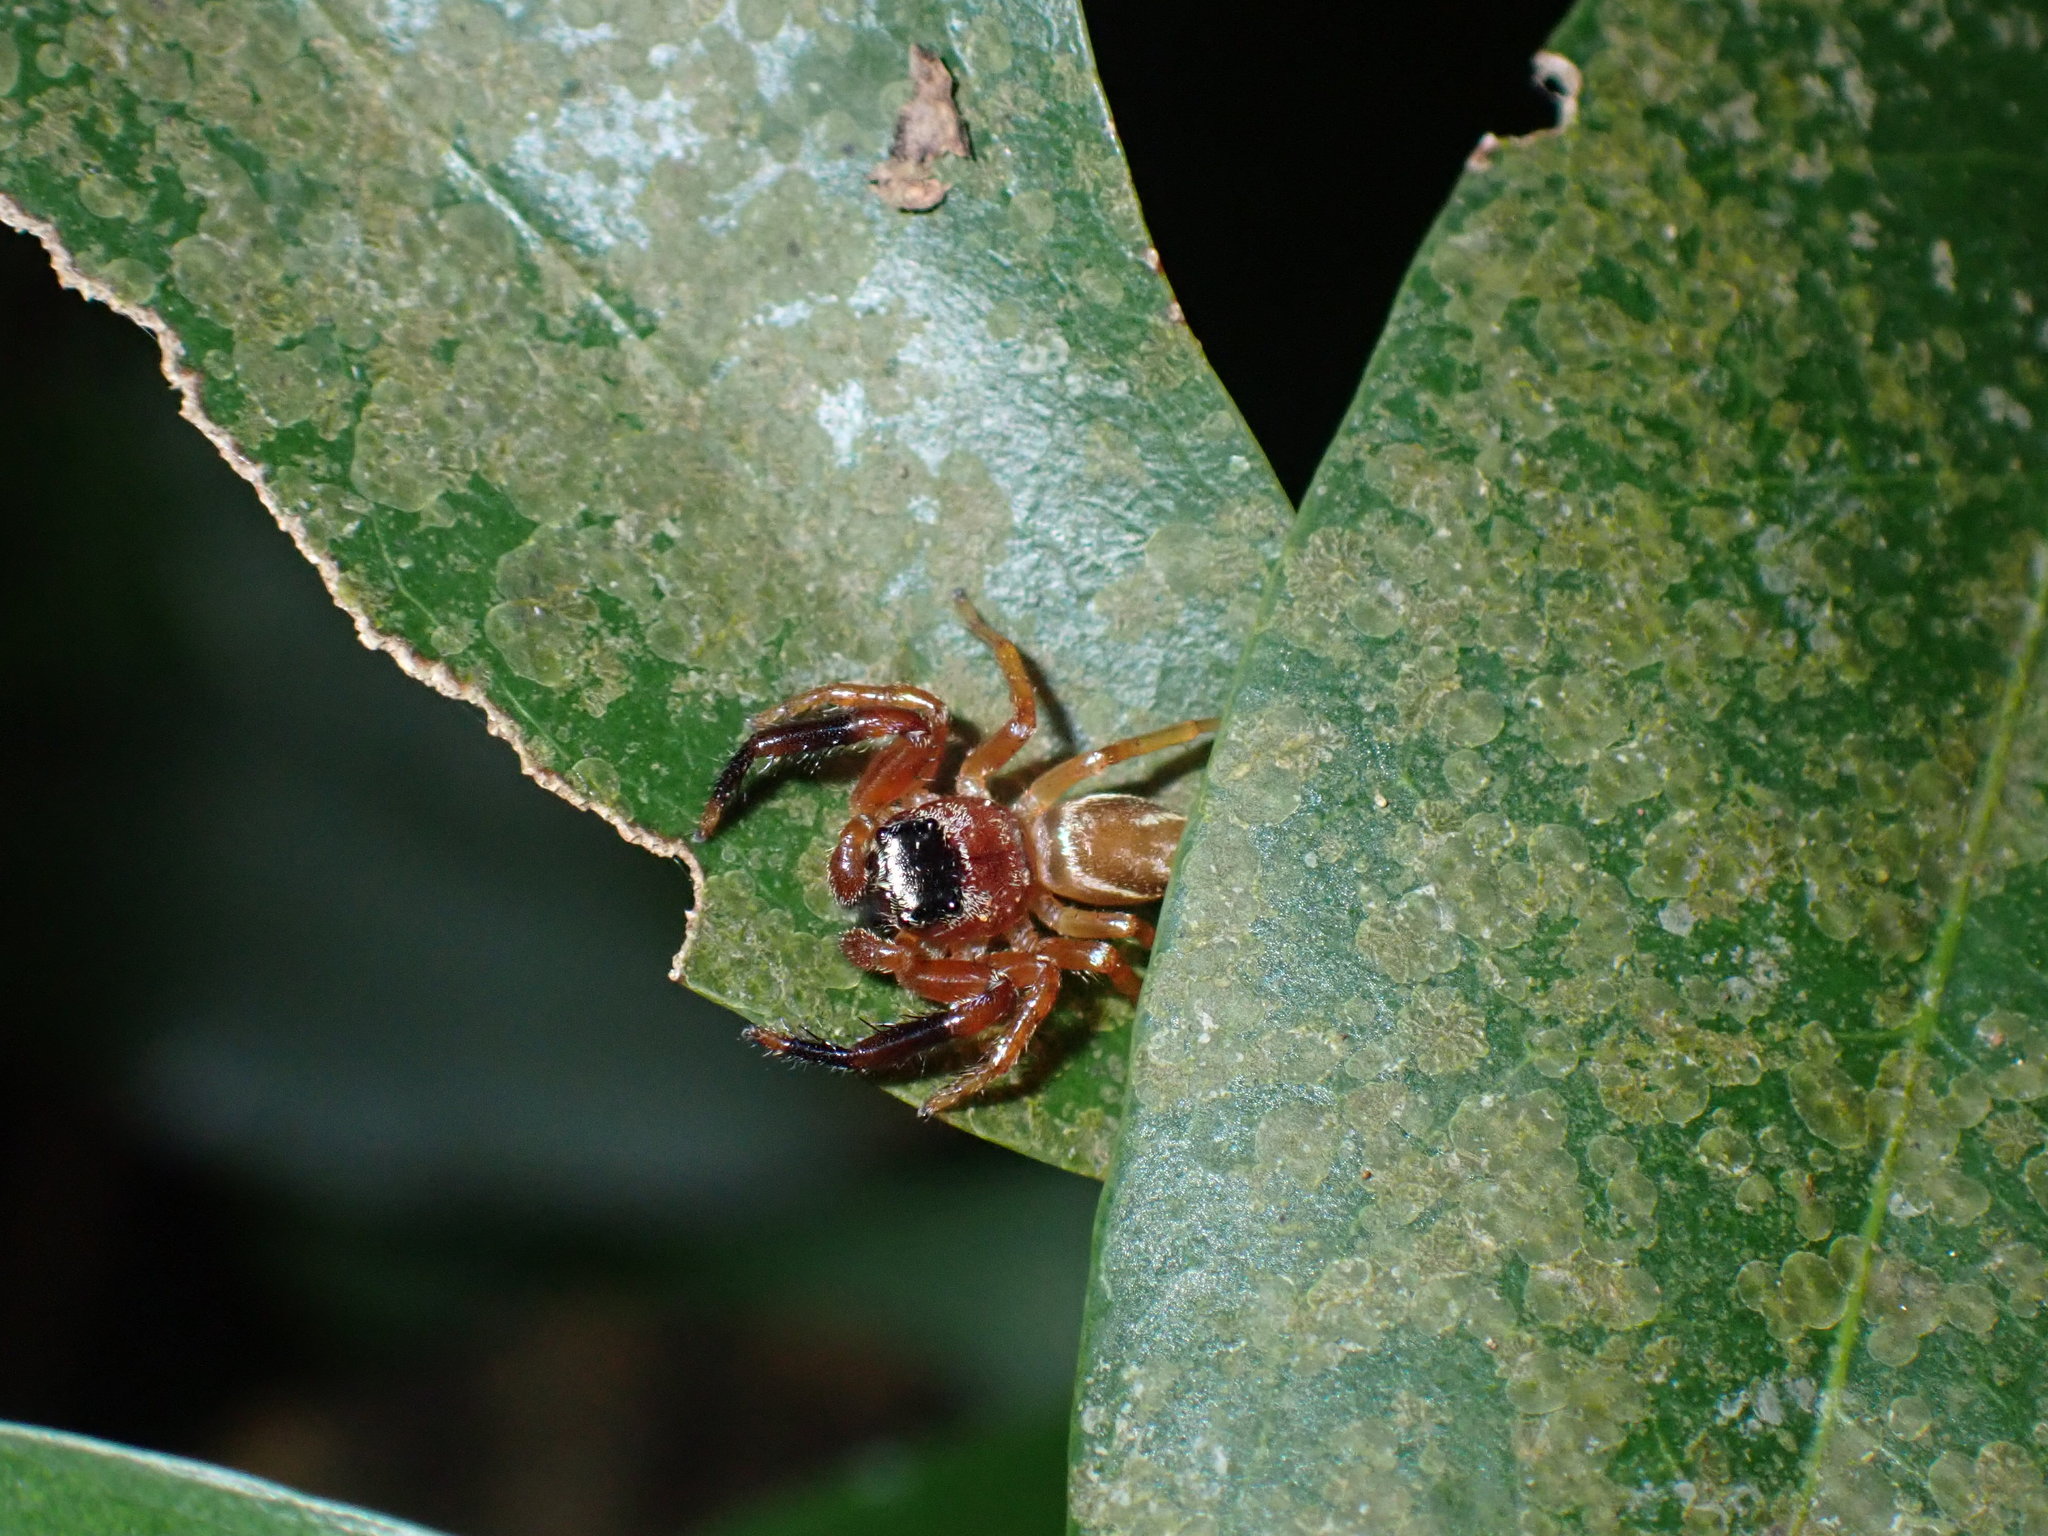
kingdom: Animalia
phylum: Arthropoda
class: Arachnida
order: Araneae
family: Salticidae
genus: Thiania
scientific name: Thiania suboppressa
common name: Jumping spider
